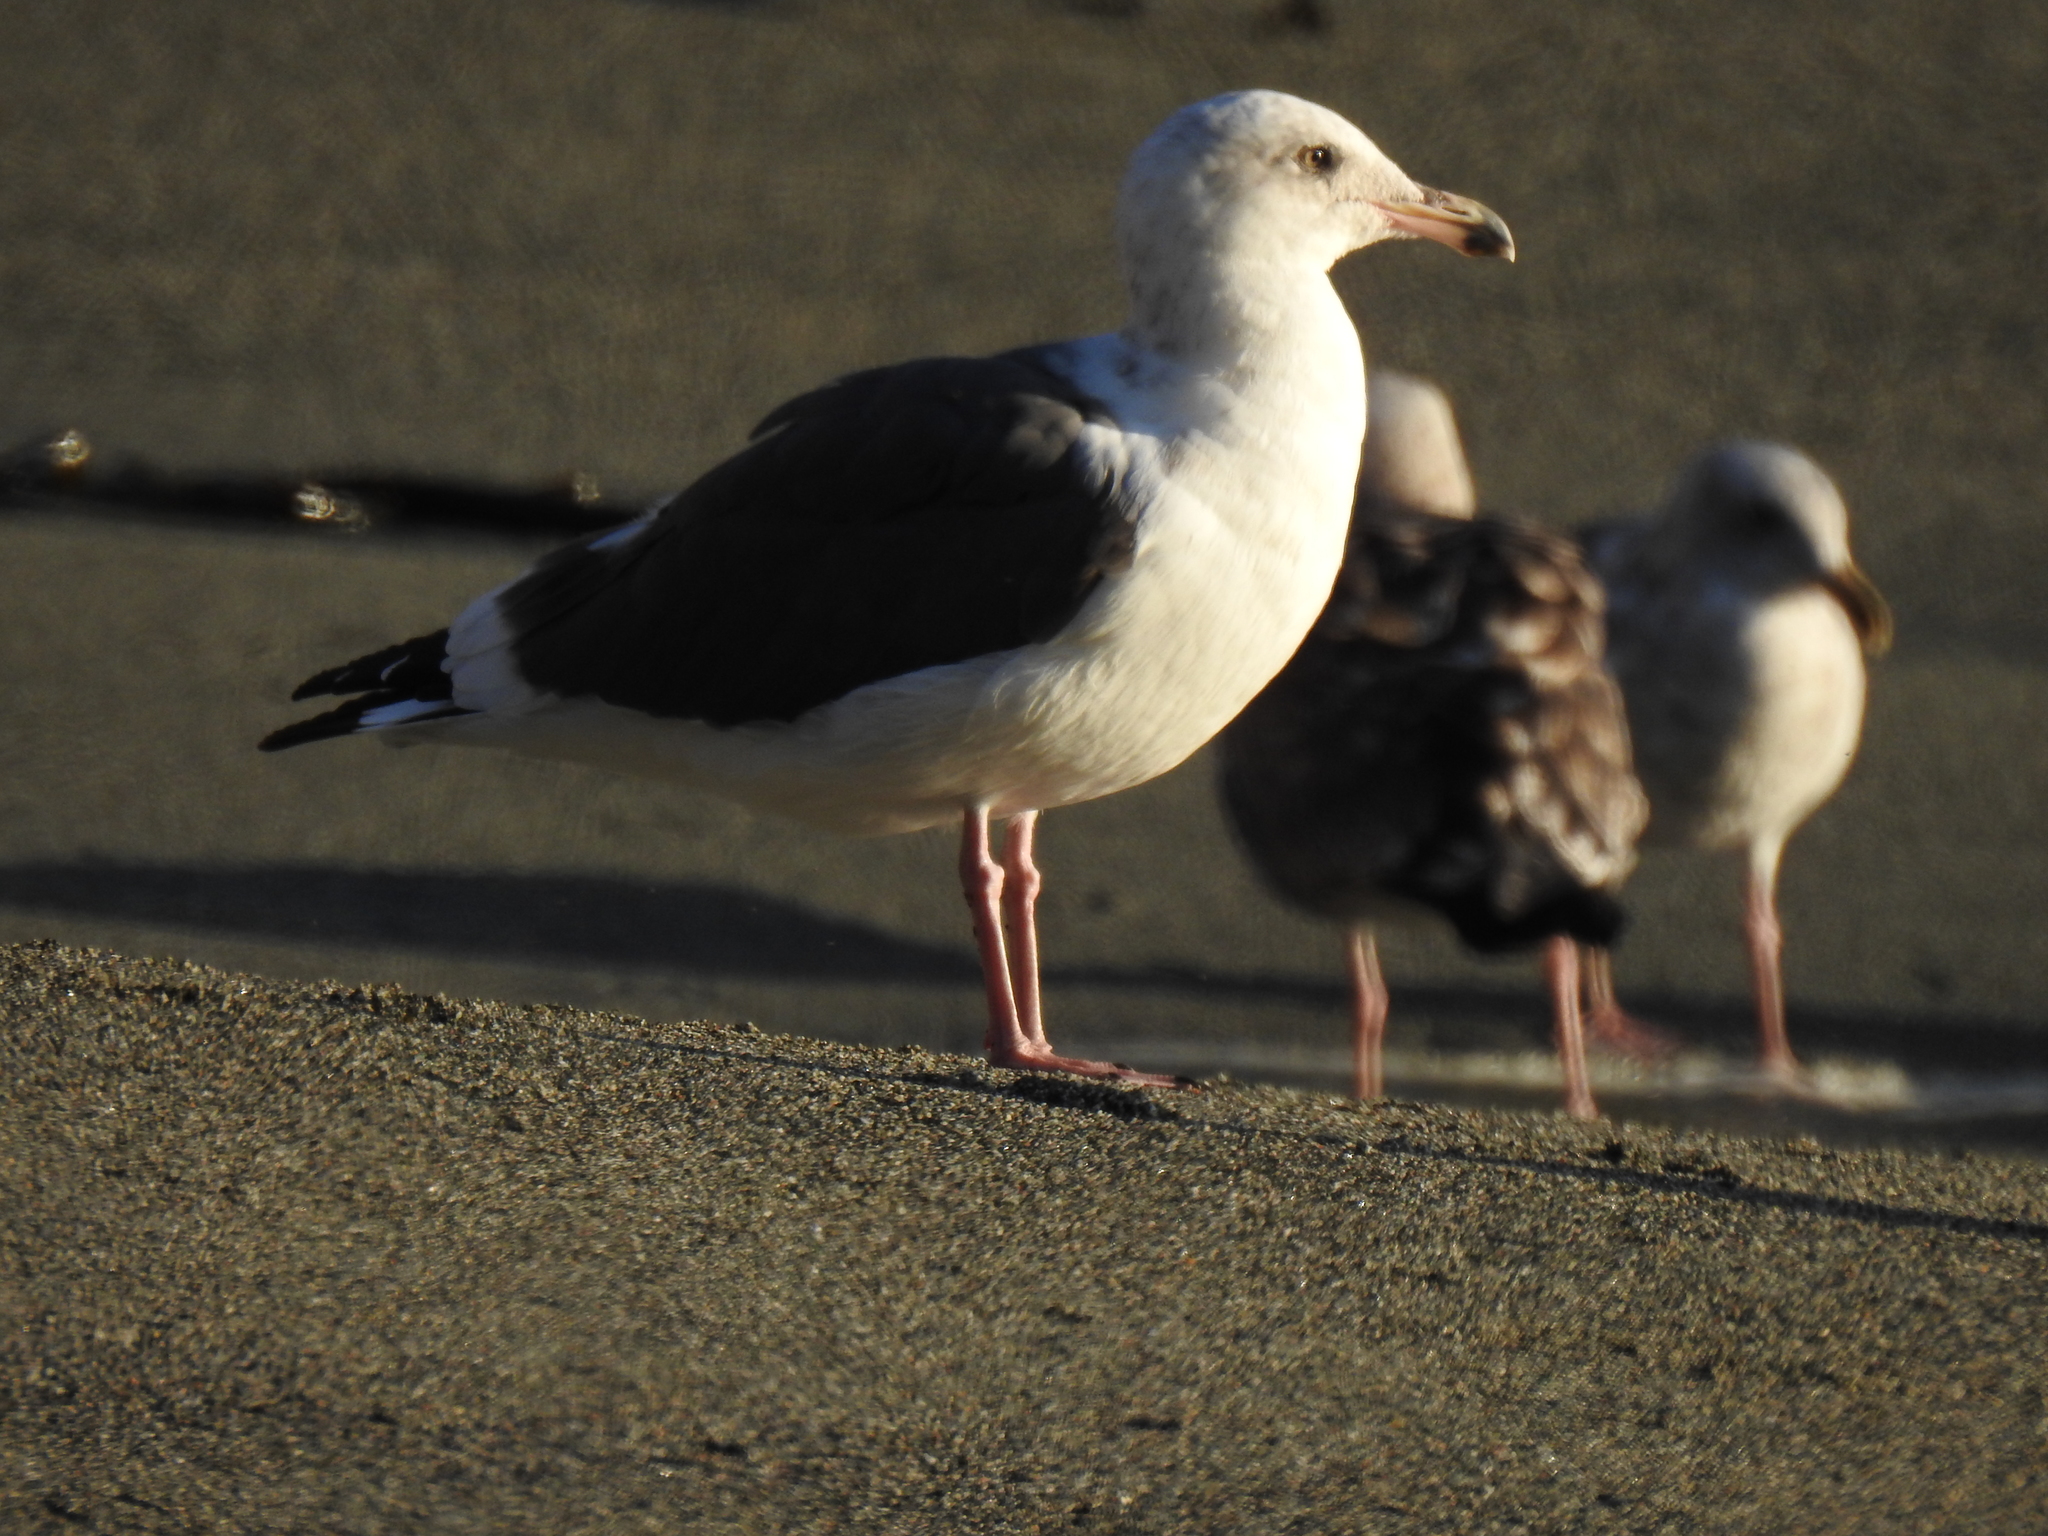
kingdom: Animalia
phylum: Chordata
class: Aves
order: Charadriiformes
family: Laridae
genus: Larus
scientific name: Larus occidentalis
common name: Western gull
